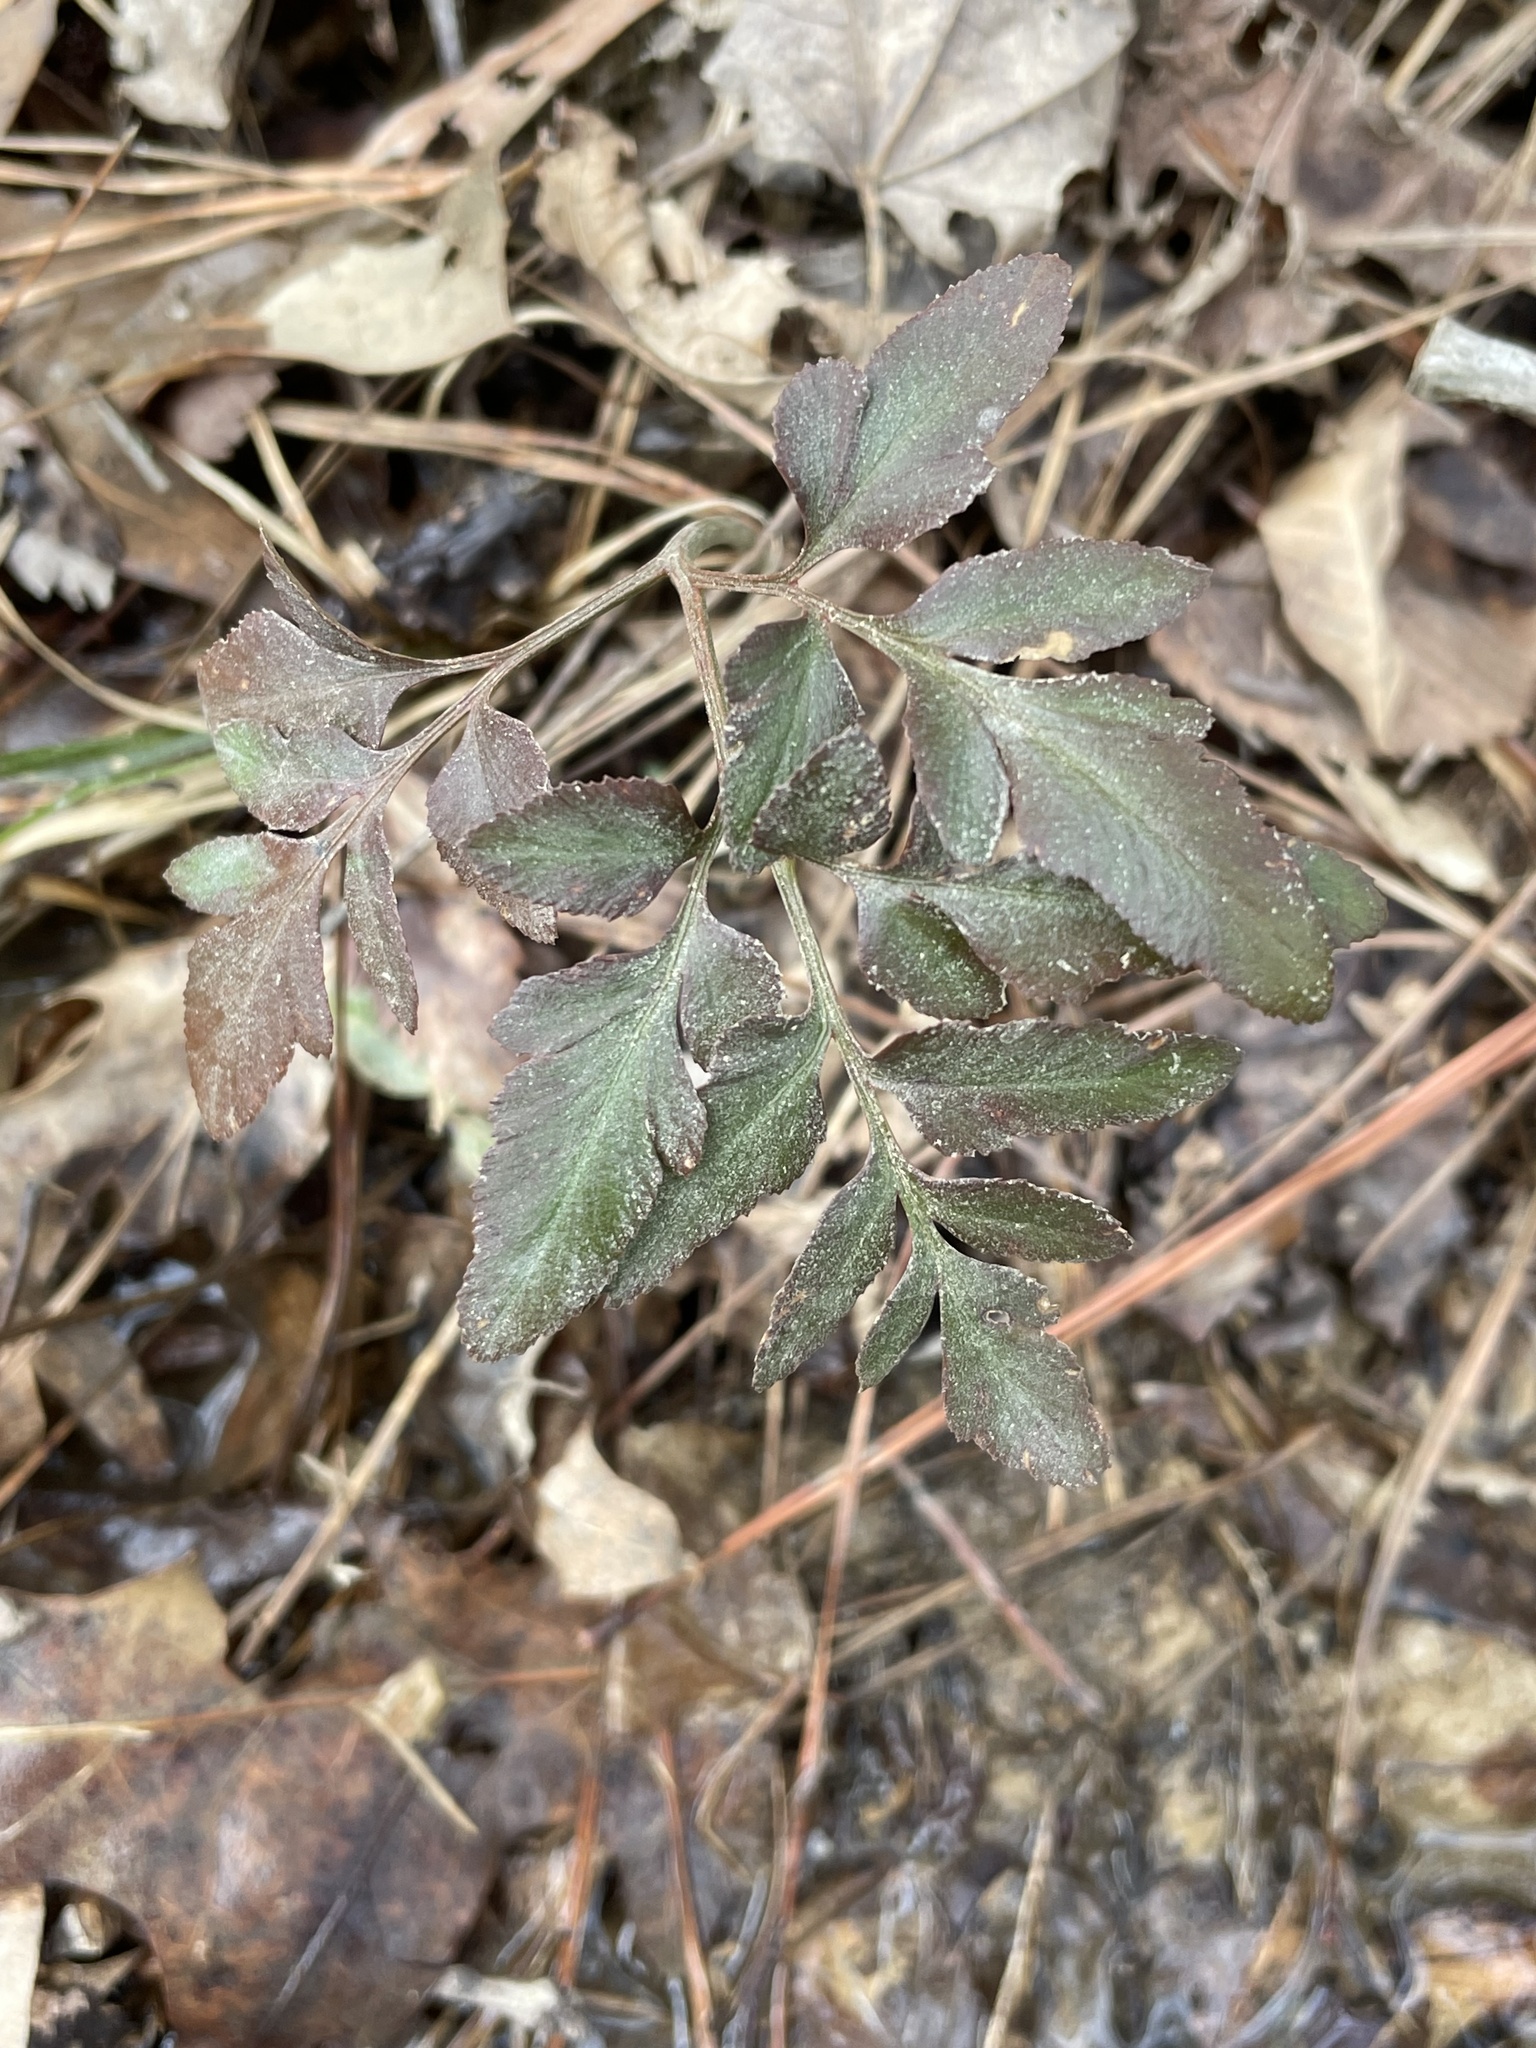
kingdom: Plantae
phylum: Tracheophyta
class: Polypodiopsida
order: Ophioglossales
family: Ophioglossaceae
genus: Sceptridium
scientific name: Sceptridium biternatum
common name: Sparse-lobed grapefern
